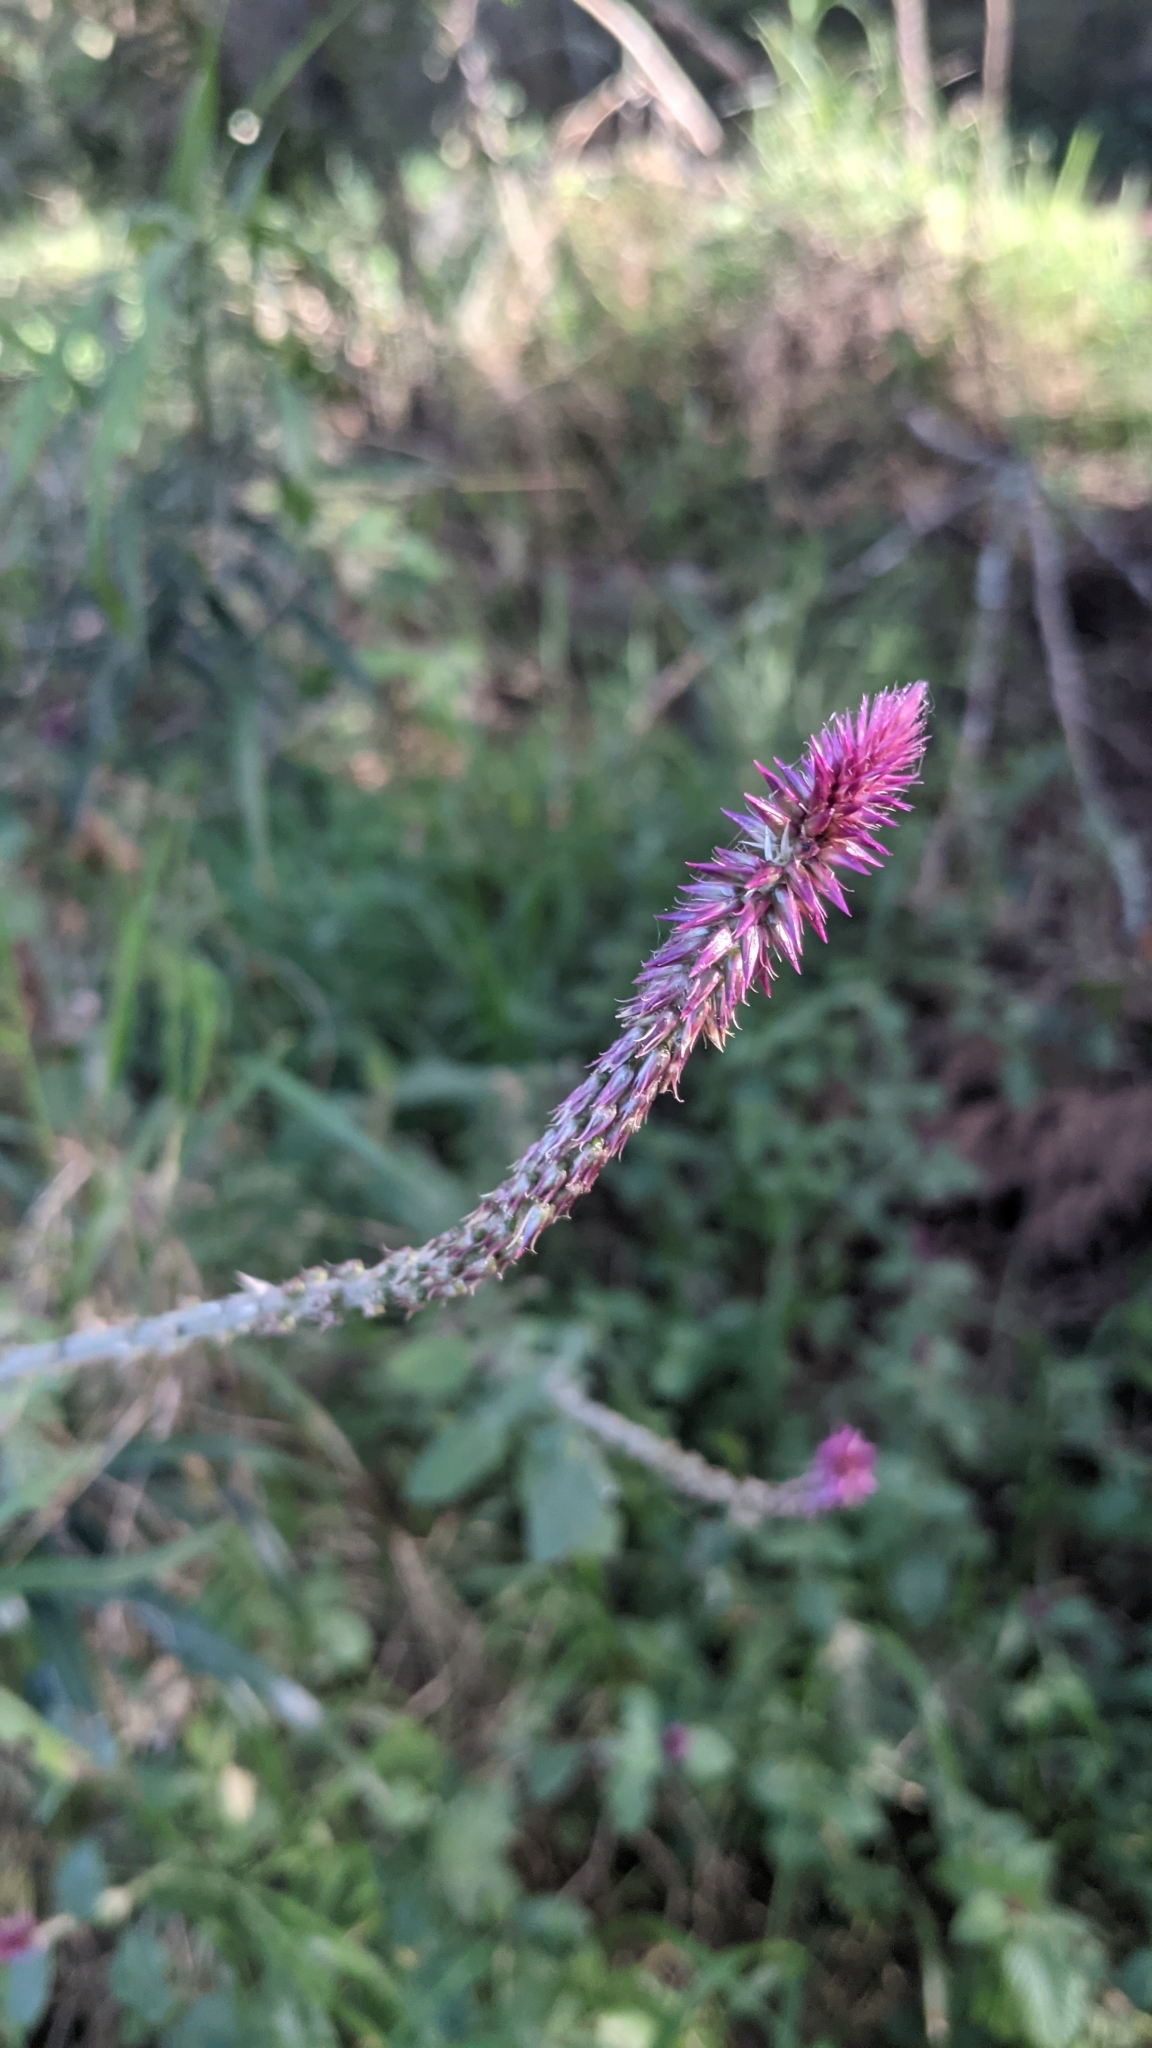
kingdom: Plantae
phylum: Tracheophyta
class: Magnoliopsida
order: Caryophyllales
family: Amaranthaceae
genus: Achyranthes
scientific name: Achyranthes aspera
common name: Devil's horsewhip
